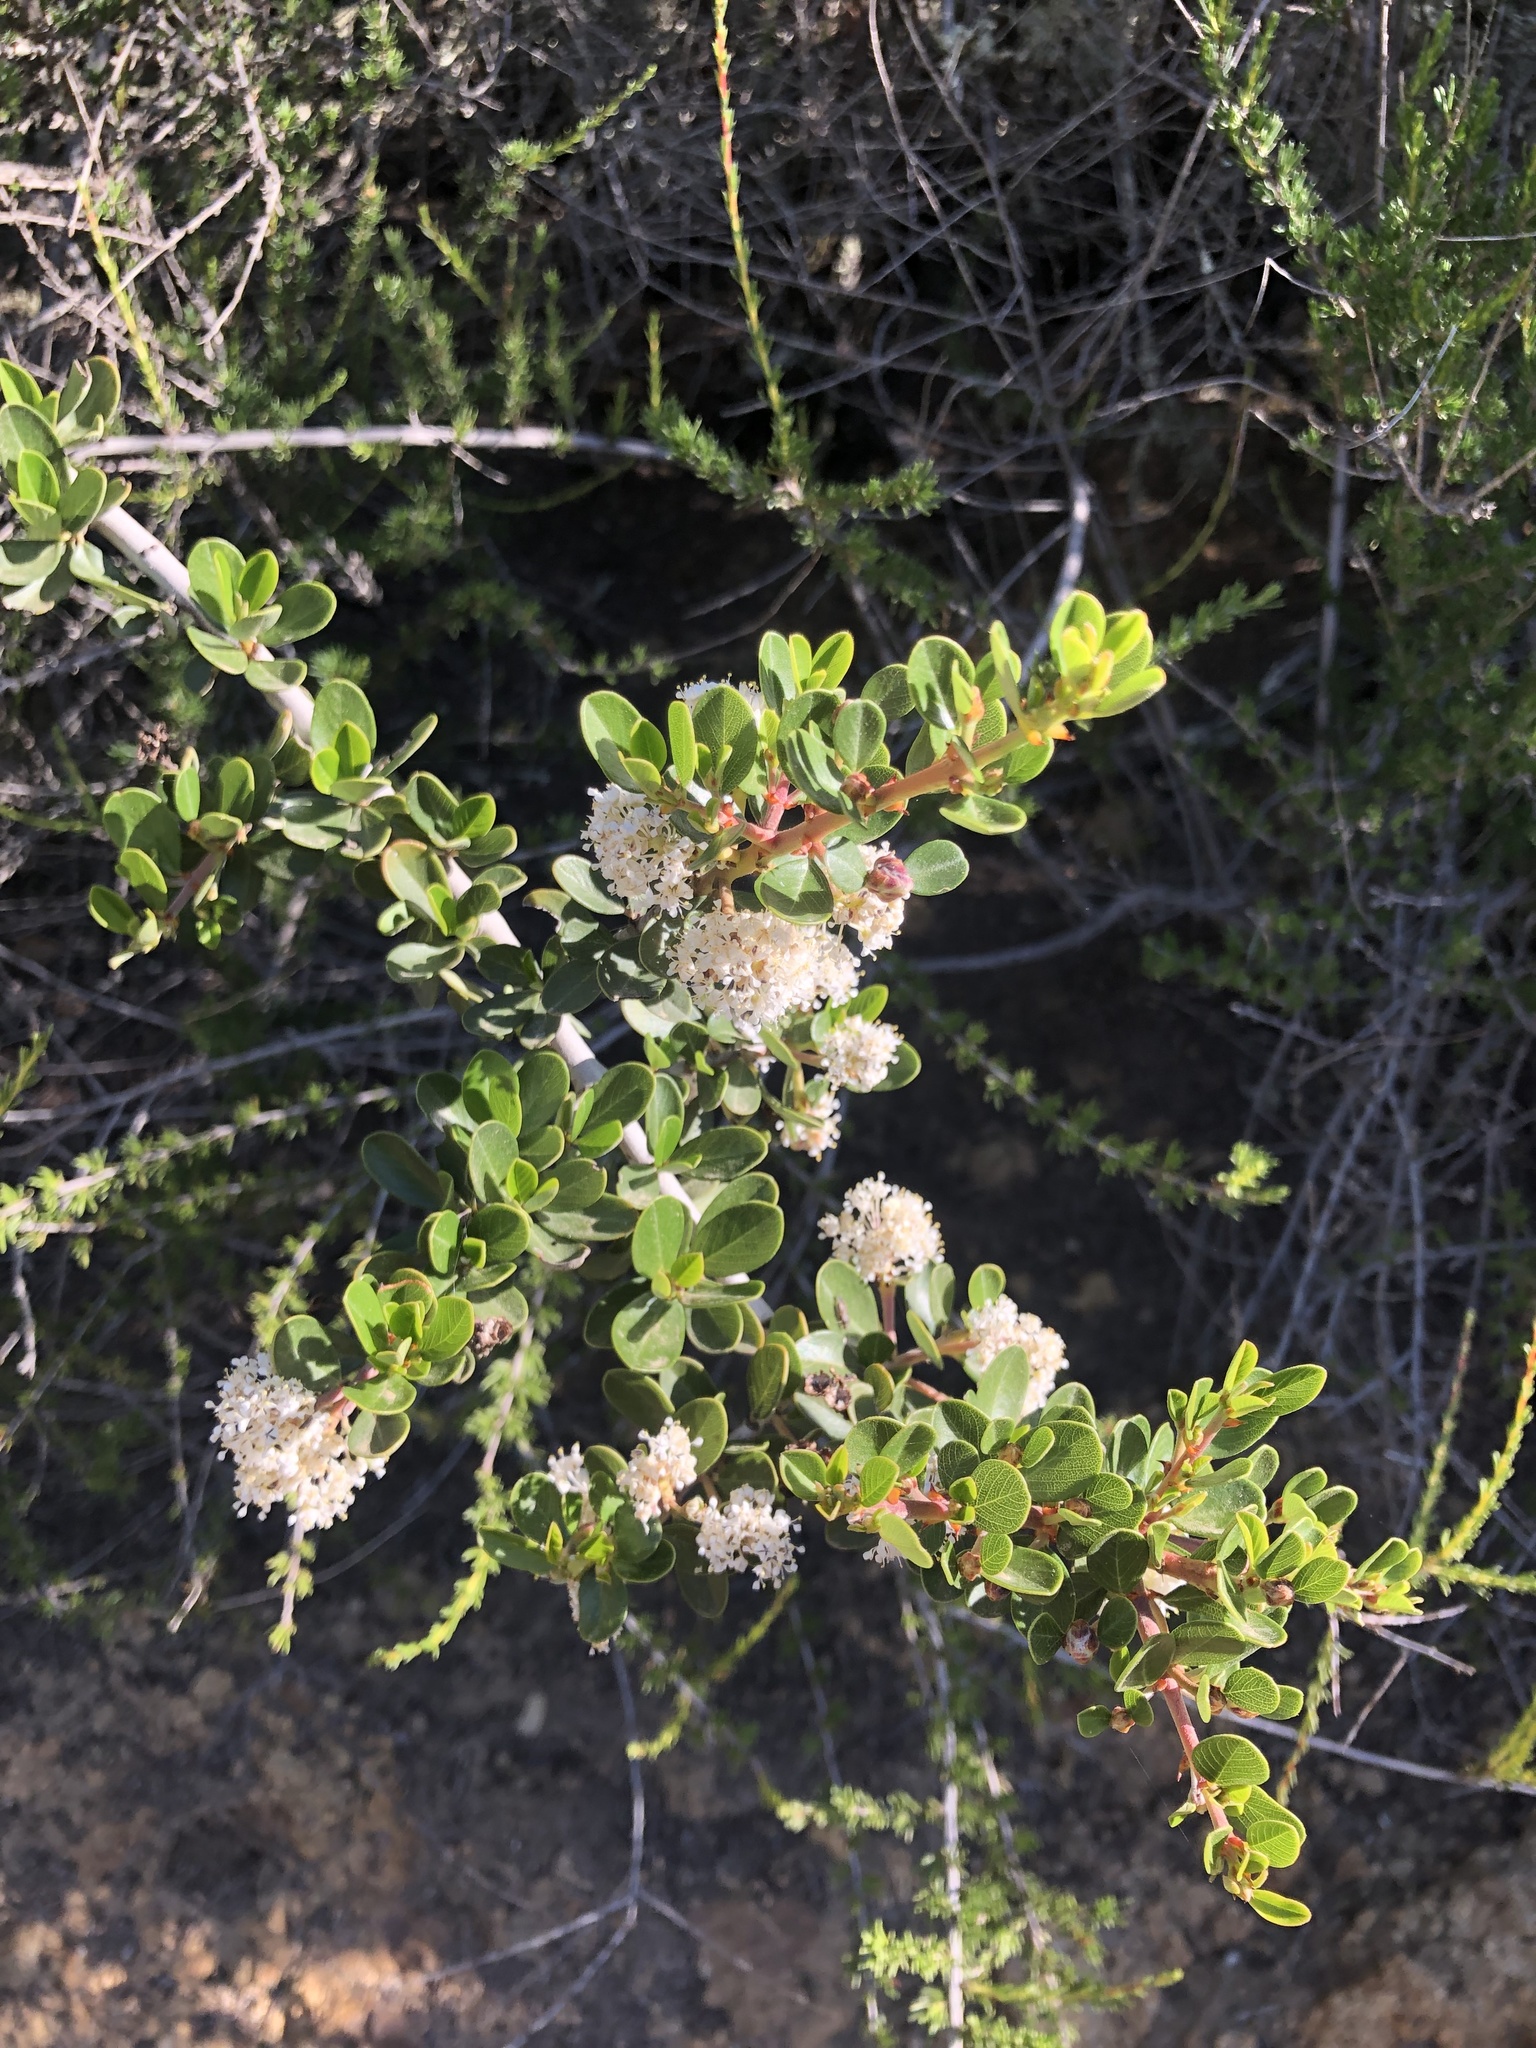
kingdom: Plantae
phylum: Tracheophyta
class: Magnoliopsida
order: Rosales
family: Rhamnaceae
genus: Ceanothus
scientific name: Ceanothus cuneatus
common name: Cuneate ceanothus
